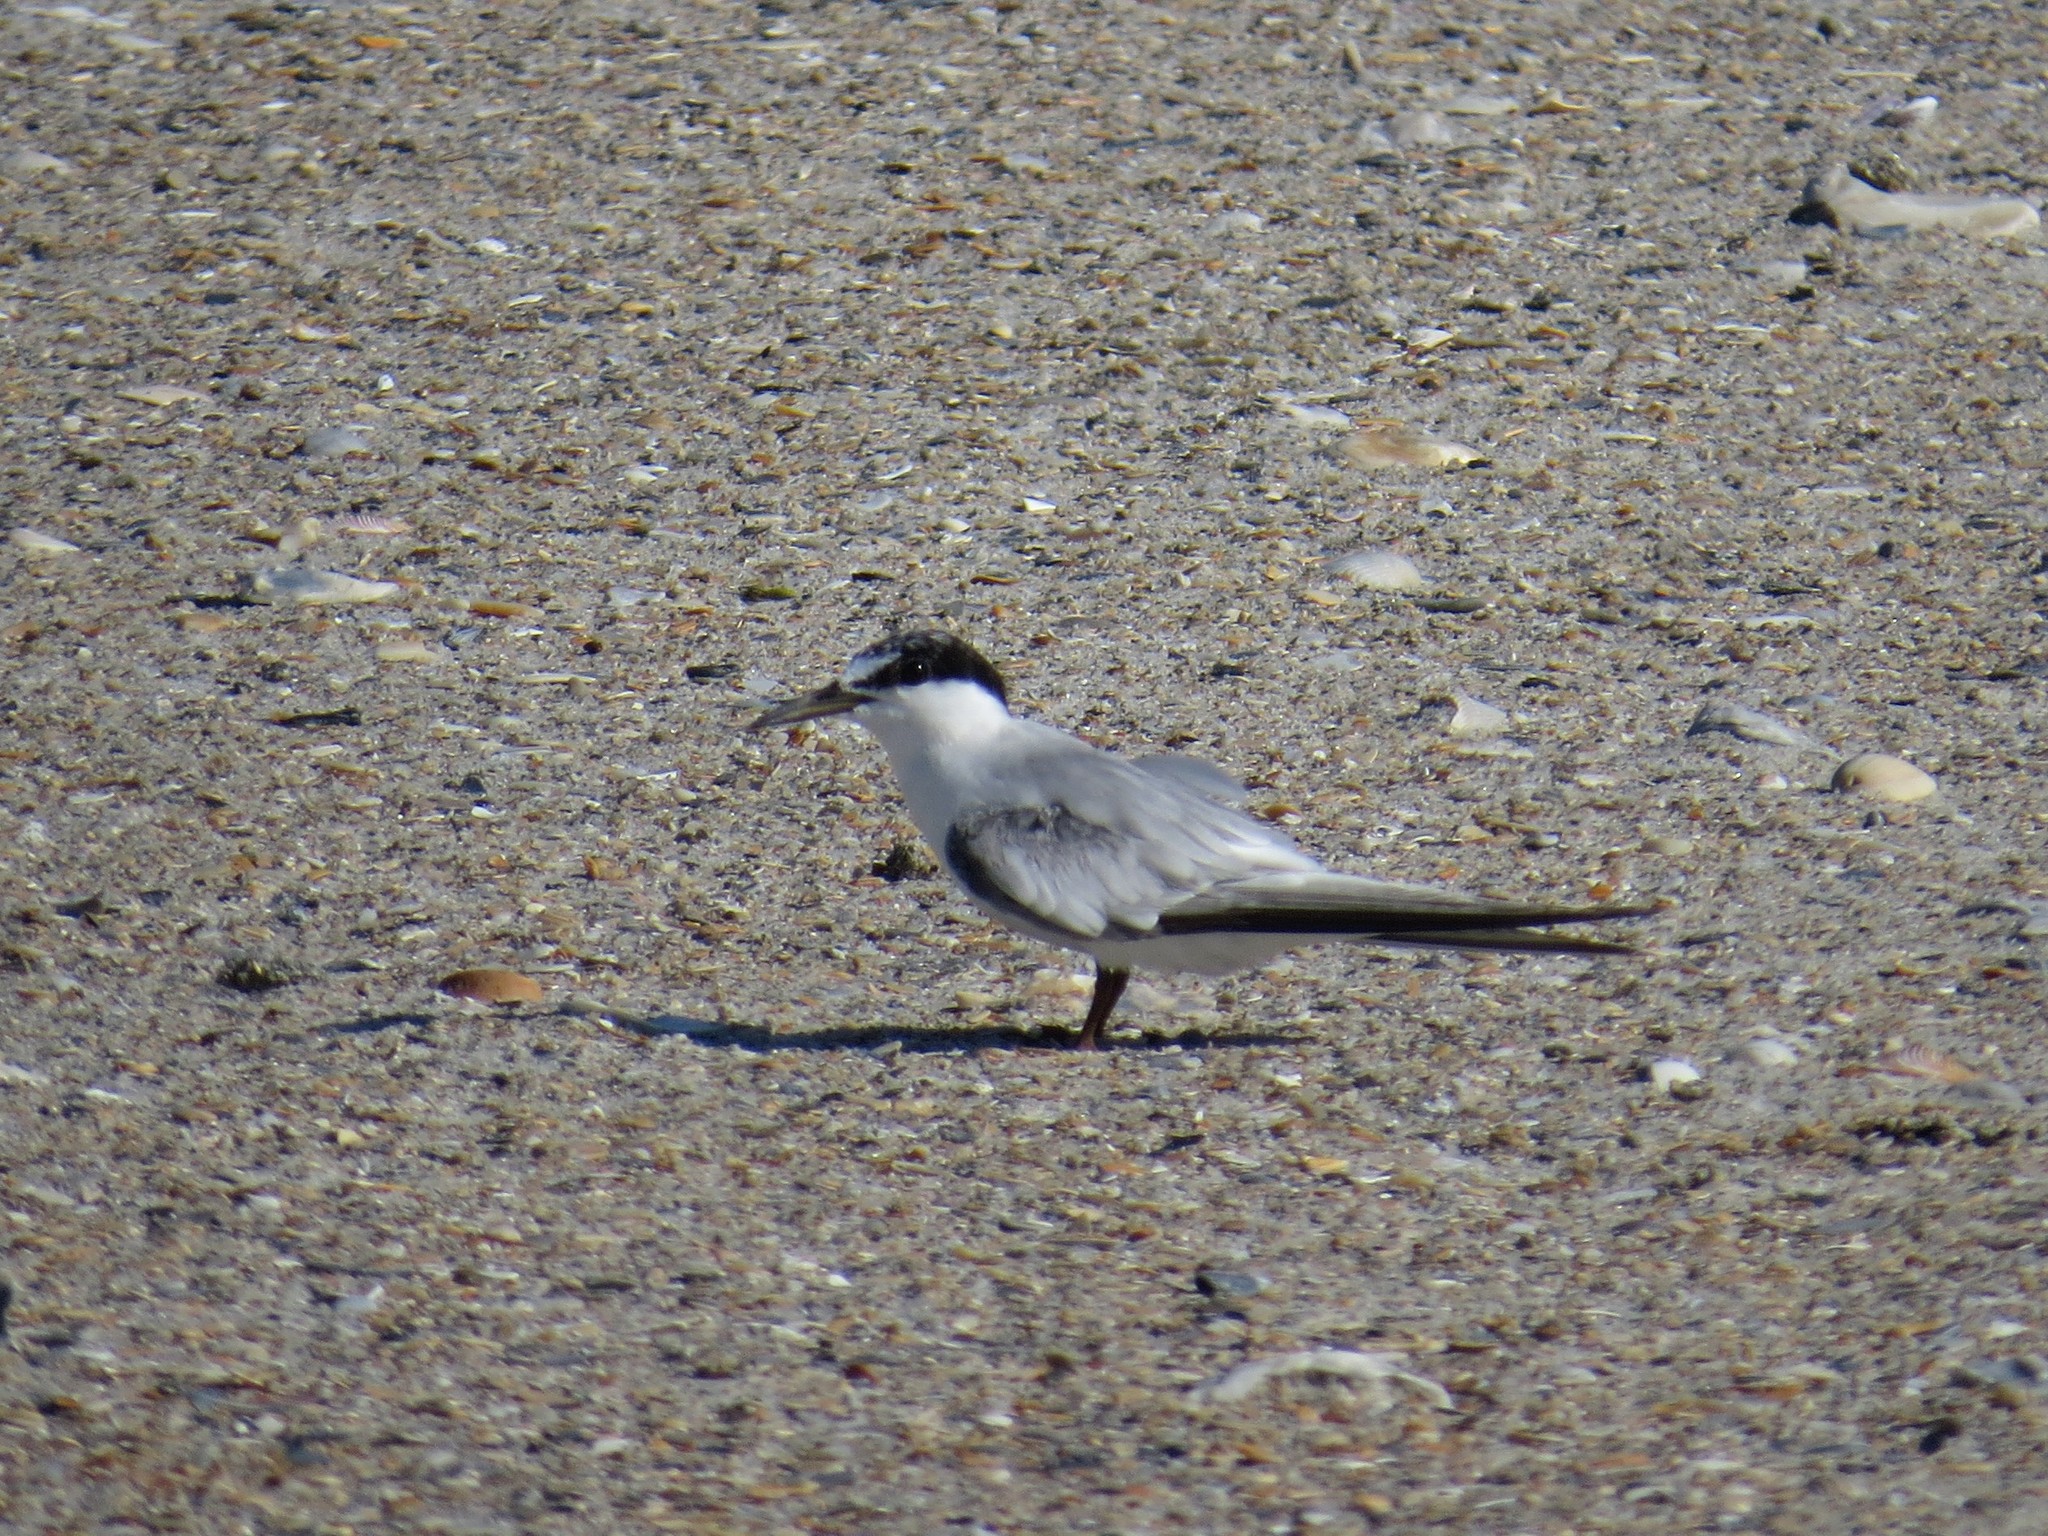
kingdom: Animalia
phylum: Chordata
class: Aves
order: Charadriiformes
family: Laridae
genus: Sternula
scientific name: Sternula antillarum
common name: Least tern
